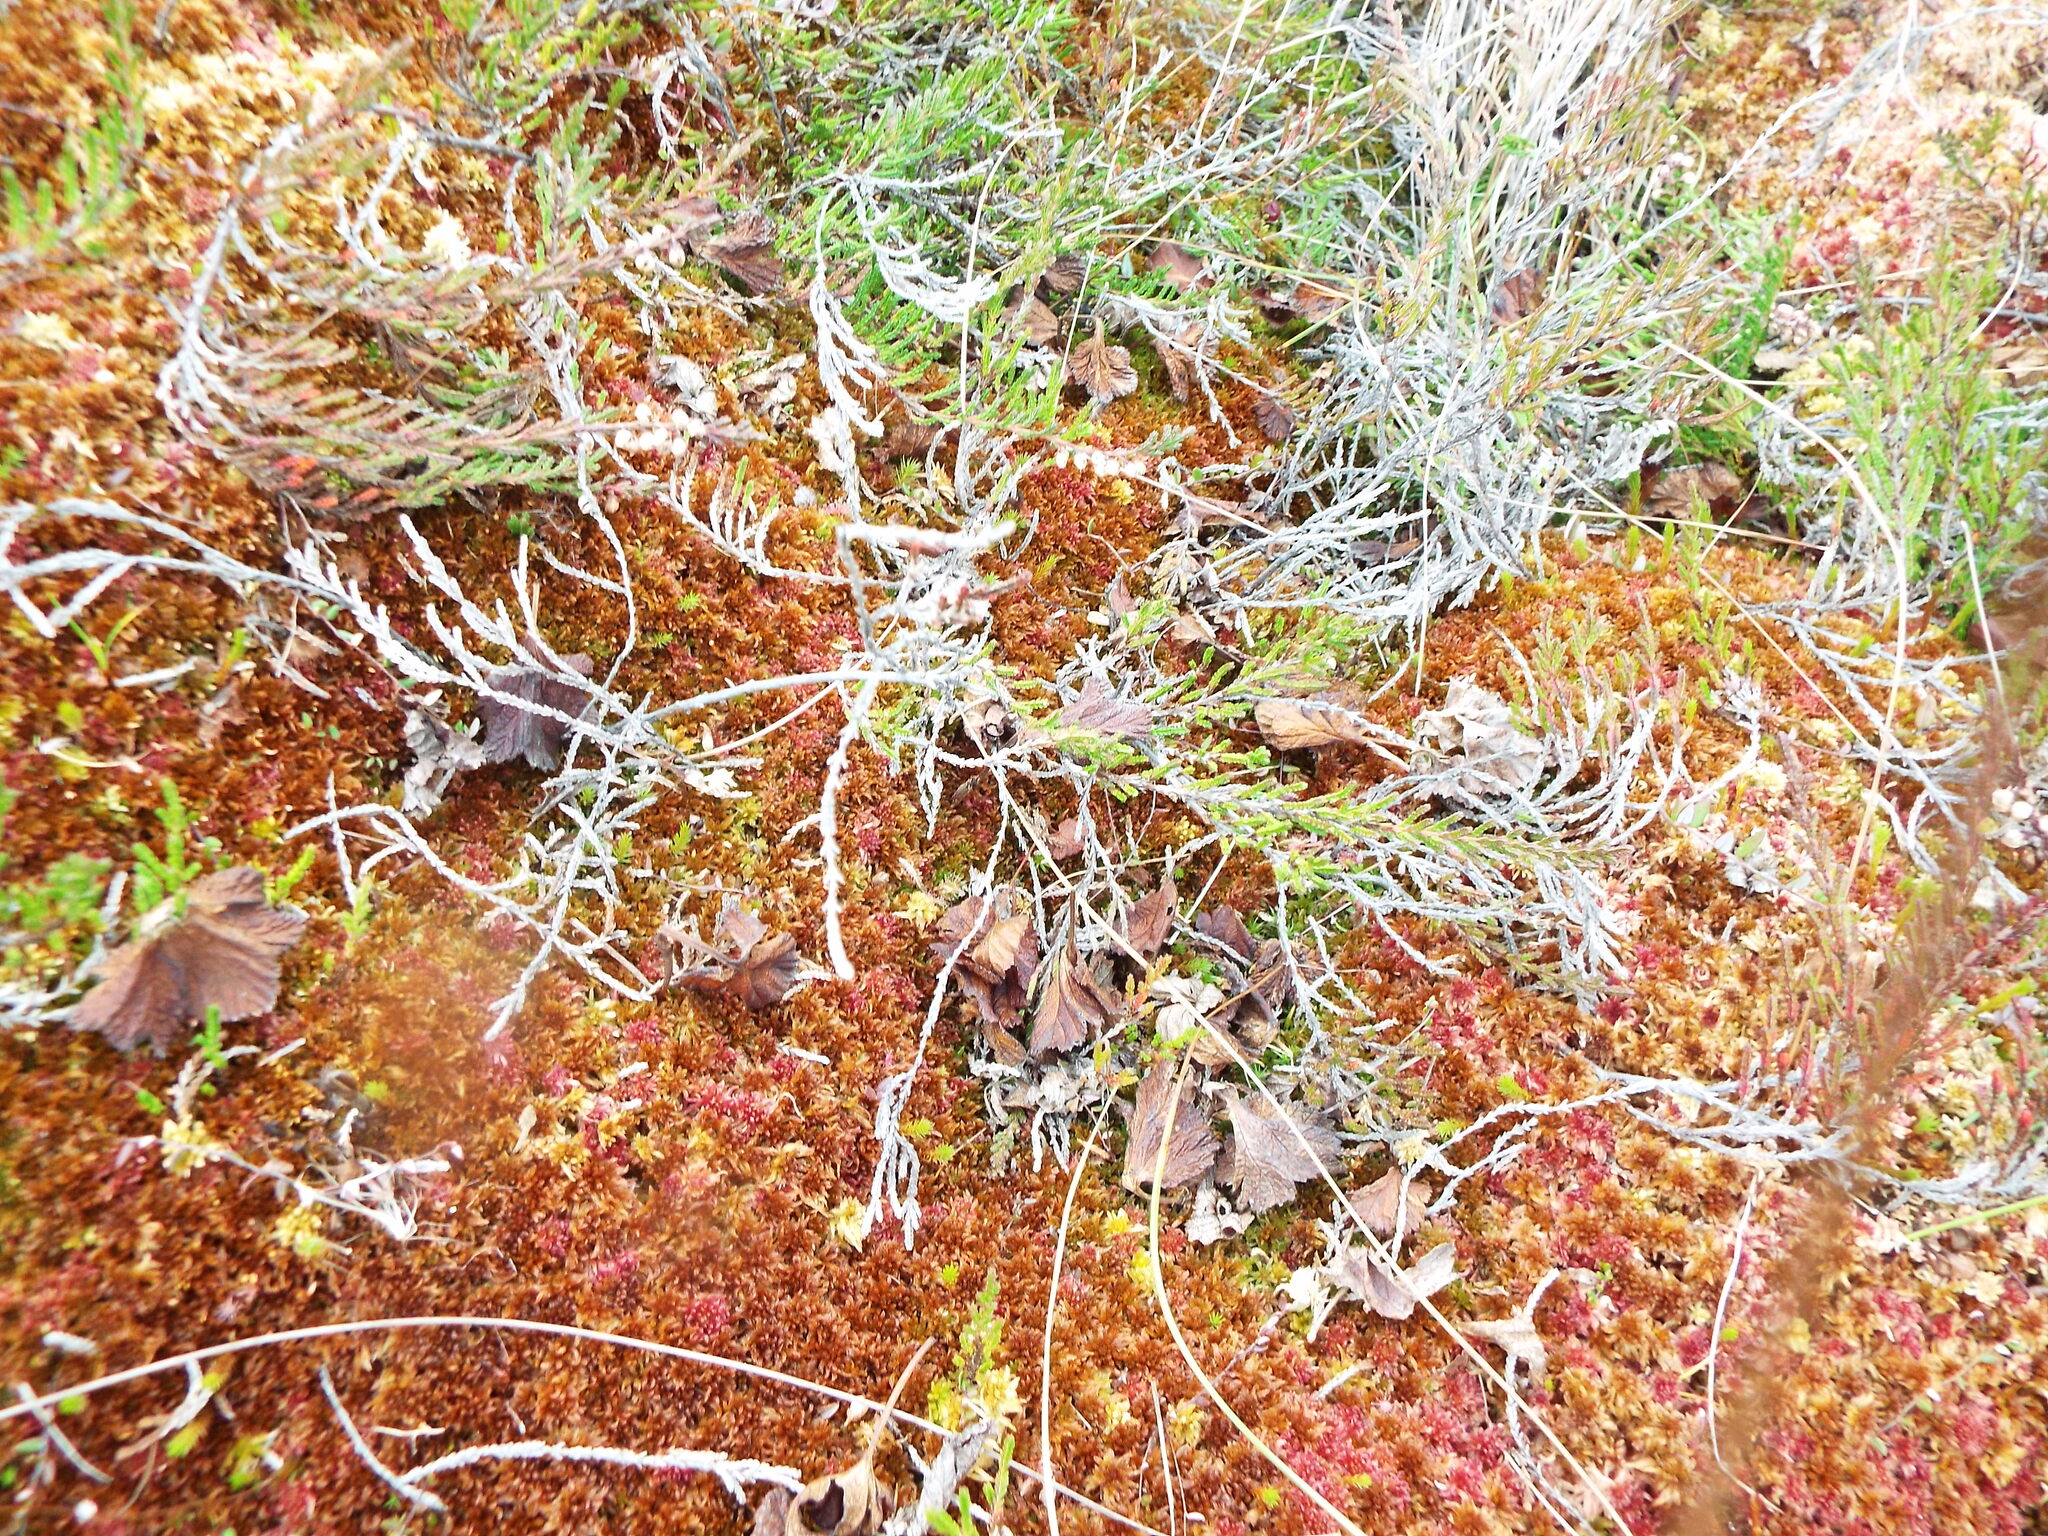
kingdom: Plantae
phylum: Tracheophyta
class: Magnoliopsida
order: Rosales
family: Rosaceae
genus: Rubus
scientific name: Rubus chamaemorus
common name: Cloudberry
